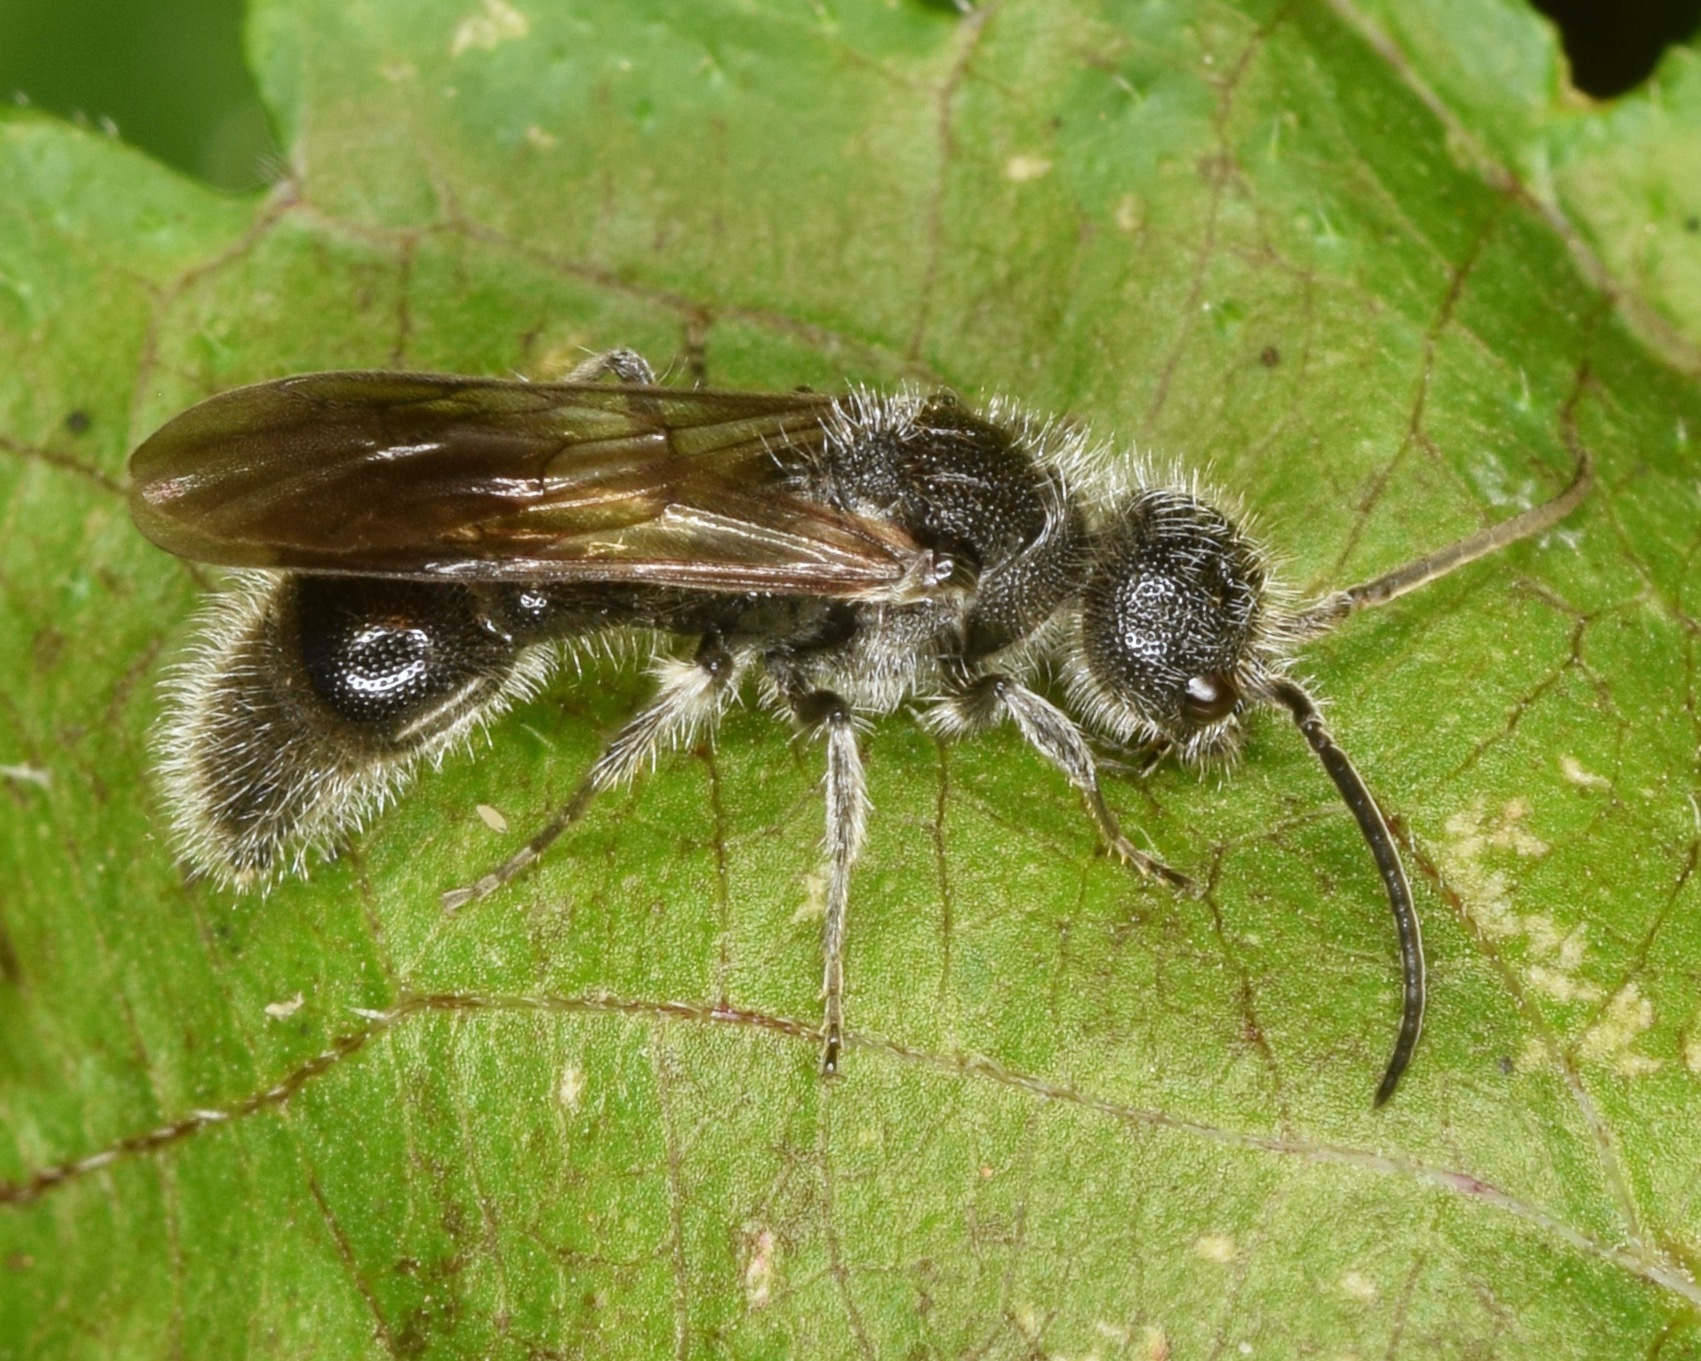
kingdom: Animalia
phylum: Arthropoda
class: Insecta
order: Hymenoptera
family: Mutillidae
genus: Photomorphus
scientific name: Photomorphus
